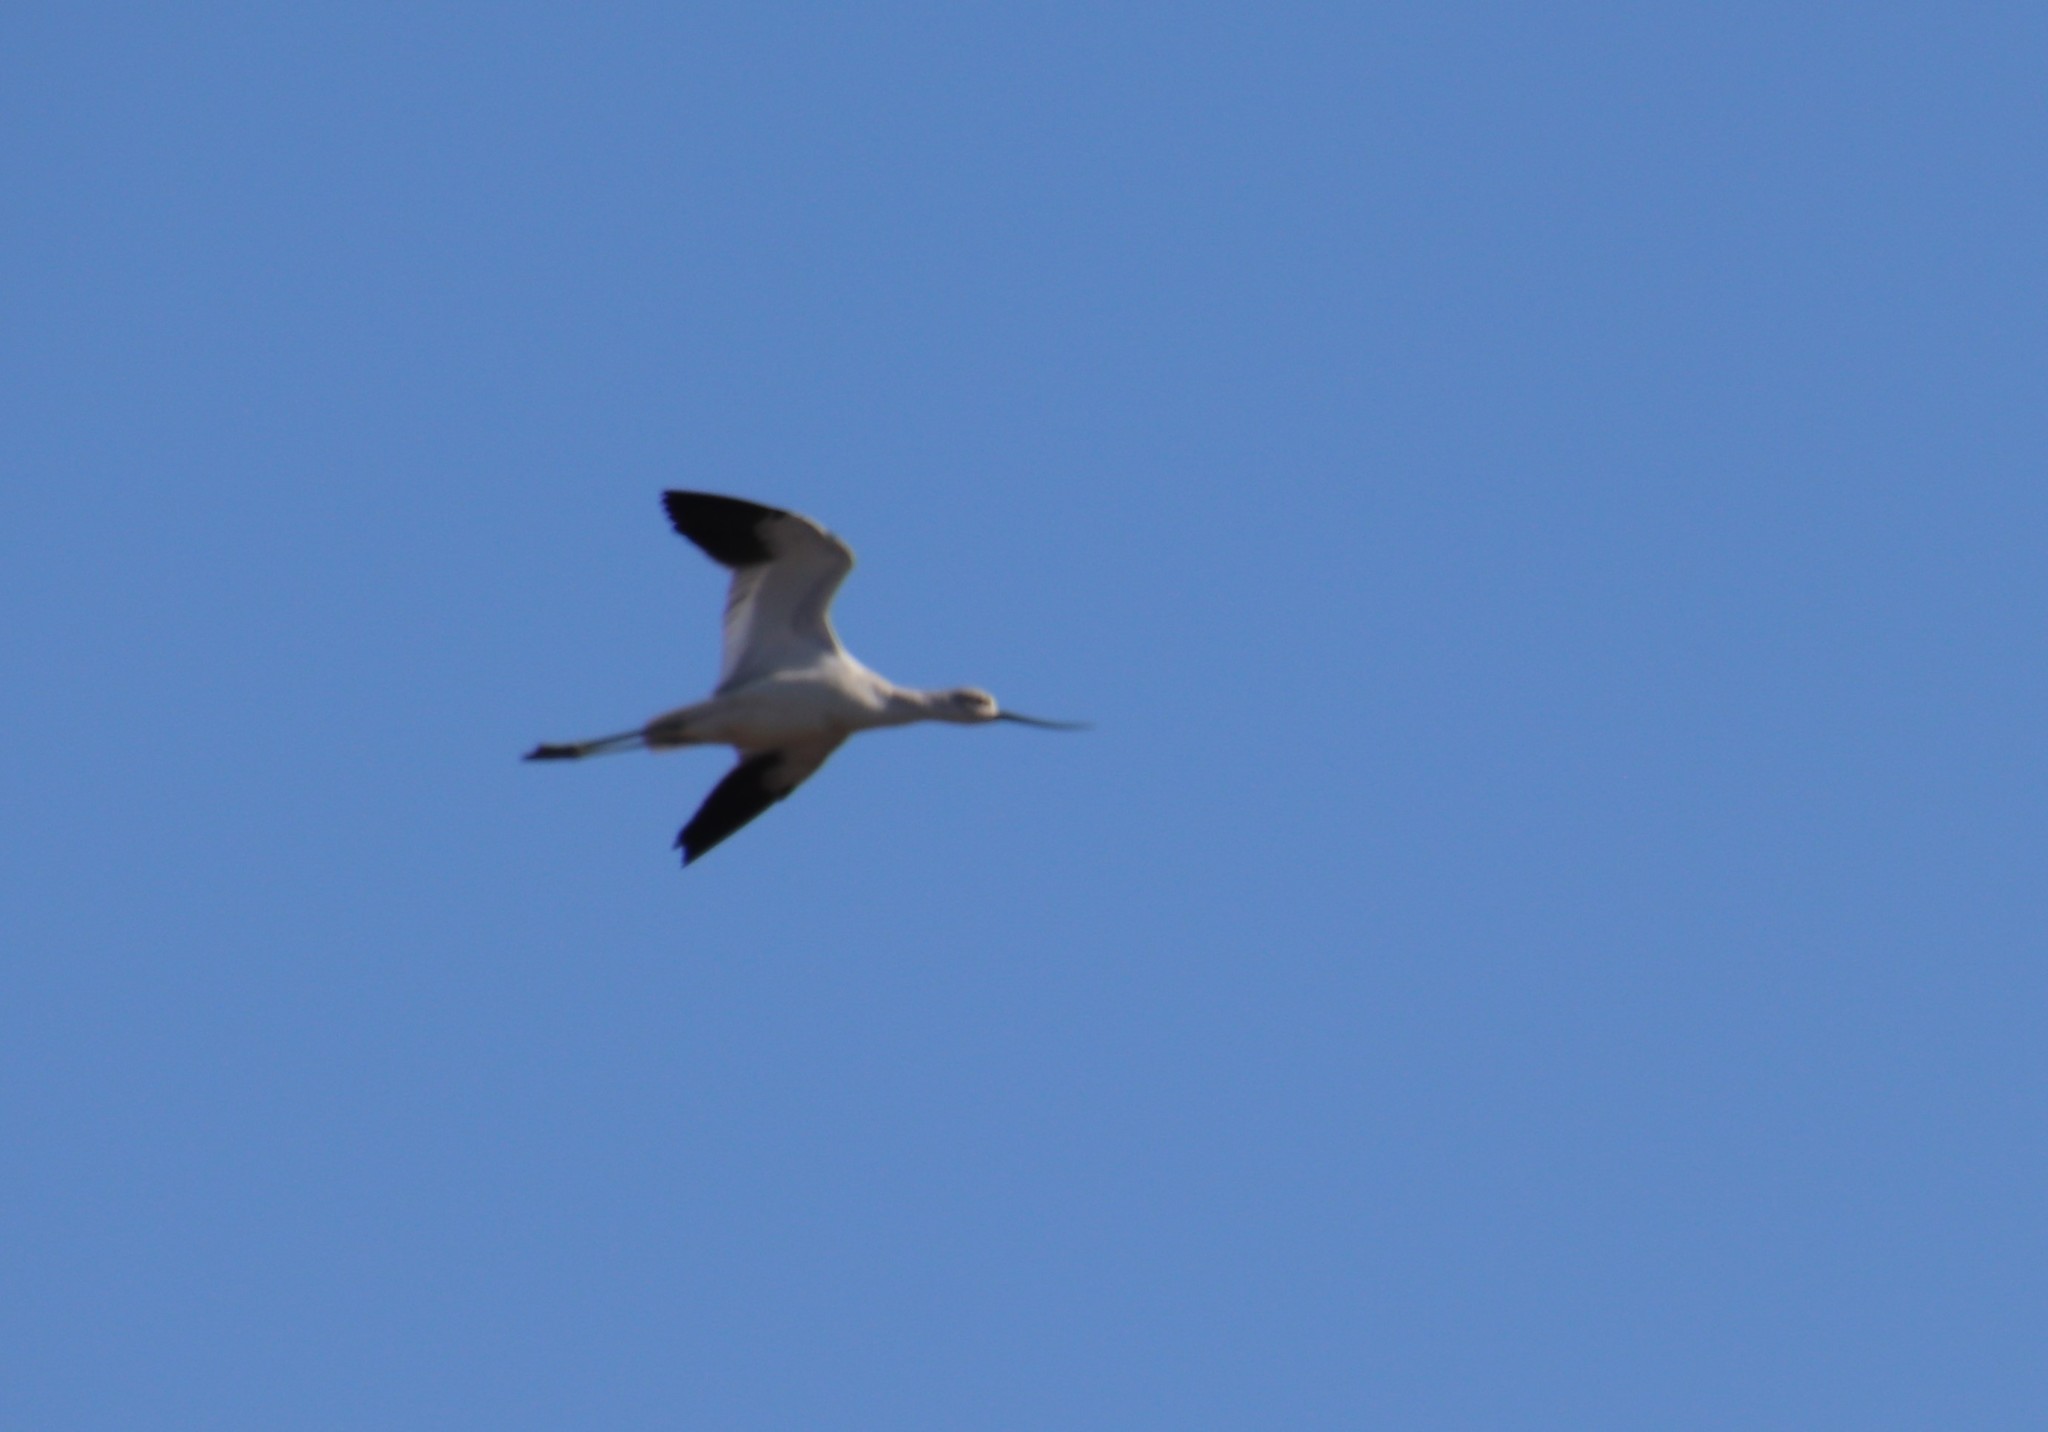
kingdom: Animalia
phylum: Chordata
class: Aves
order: Charadriiformes
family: Recurvirostridae
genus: Recurvirostra
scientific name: Recurvirostra americana
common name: American avocet
